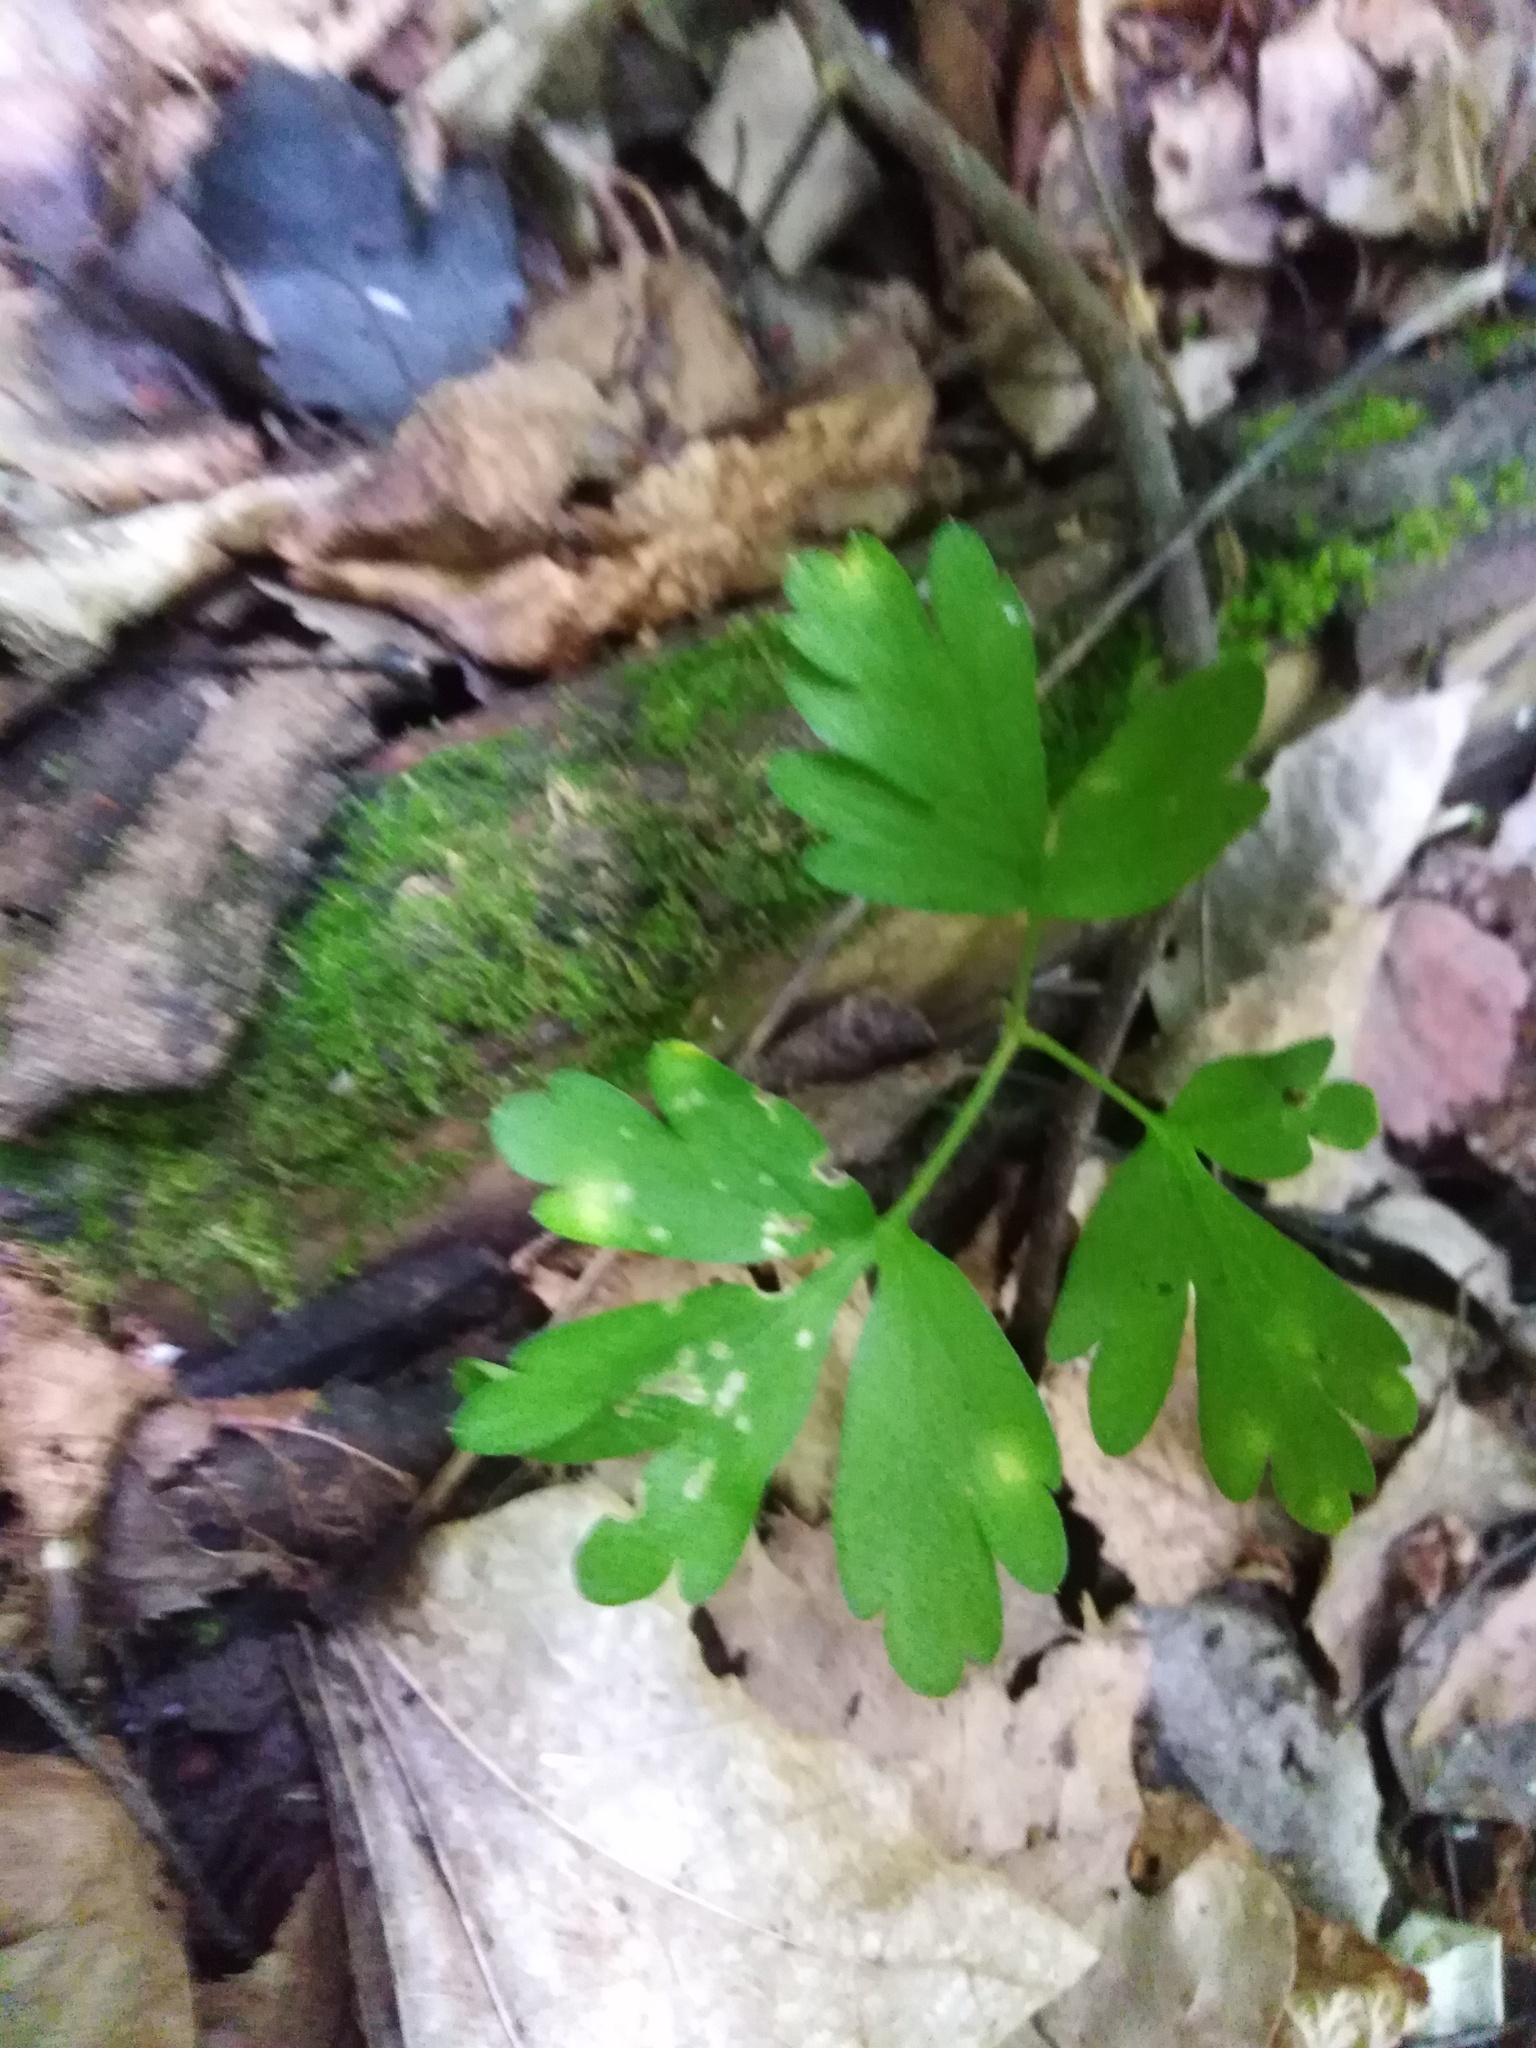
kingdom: Plantae
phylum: Tracheophyta
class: Magnoliopsida
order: Dipsacales
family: Viburnaceae
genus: Adoxa
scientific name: Adoxa moschatellina
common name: Moschatel
